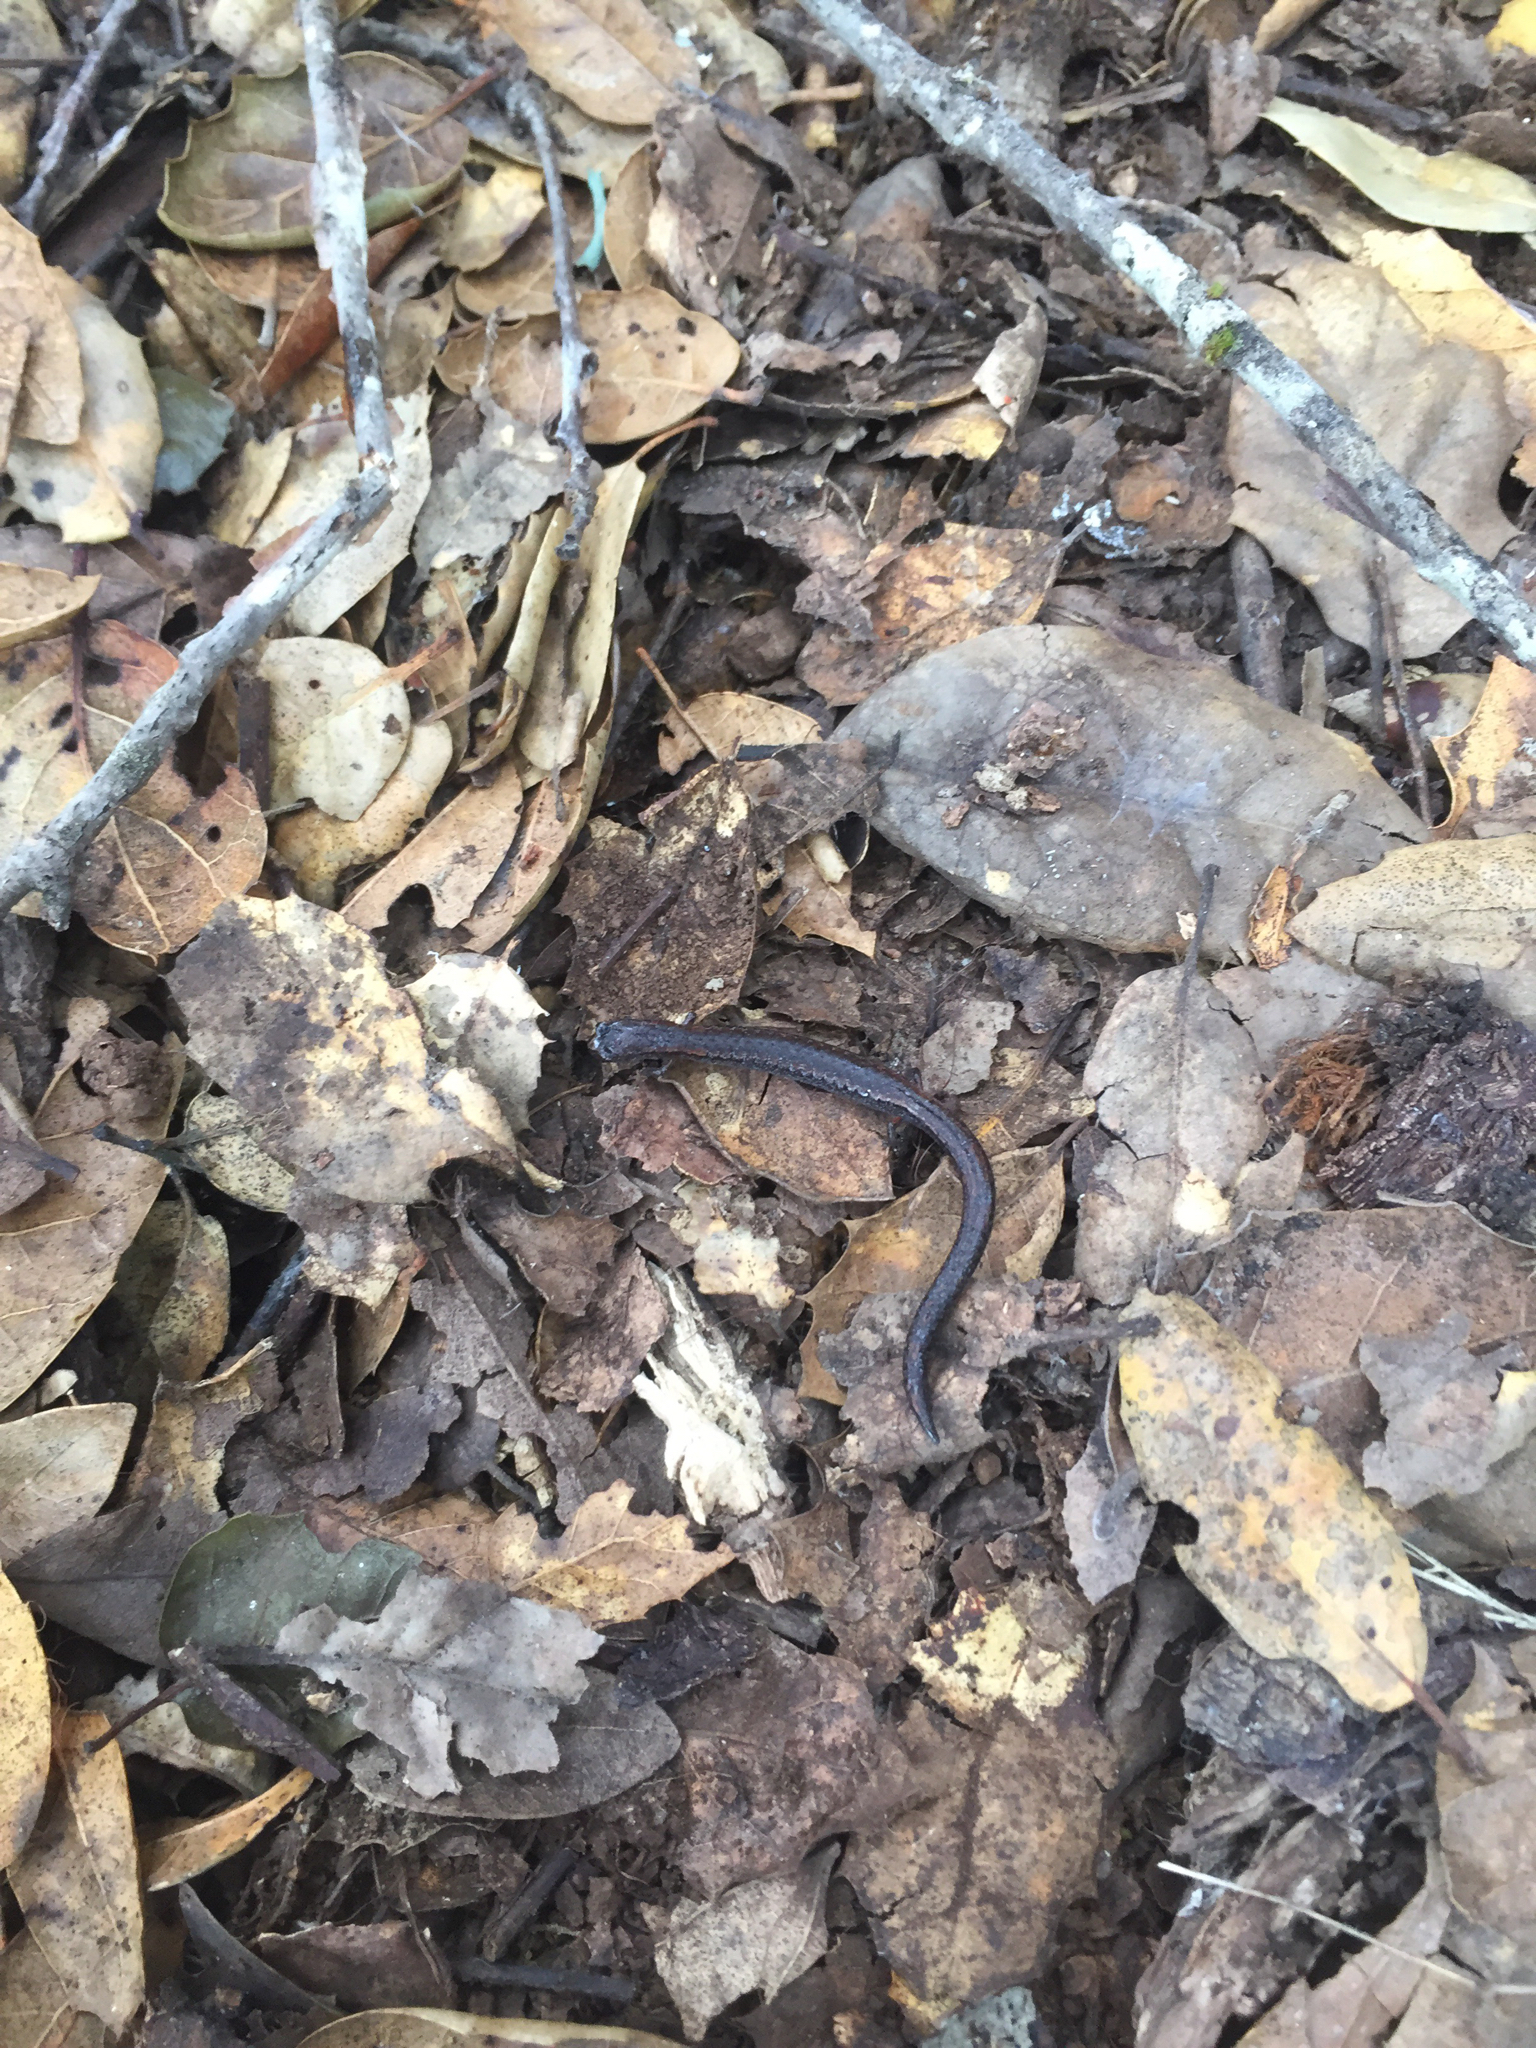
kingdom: Animalia
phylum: Chordata
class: Amphibia
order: Caudata
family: Plethodontidae
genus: Batrachoseps
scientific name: Batrachoseps attenuatus
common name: California slender salamander
